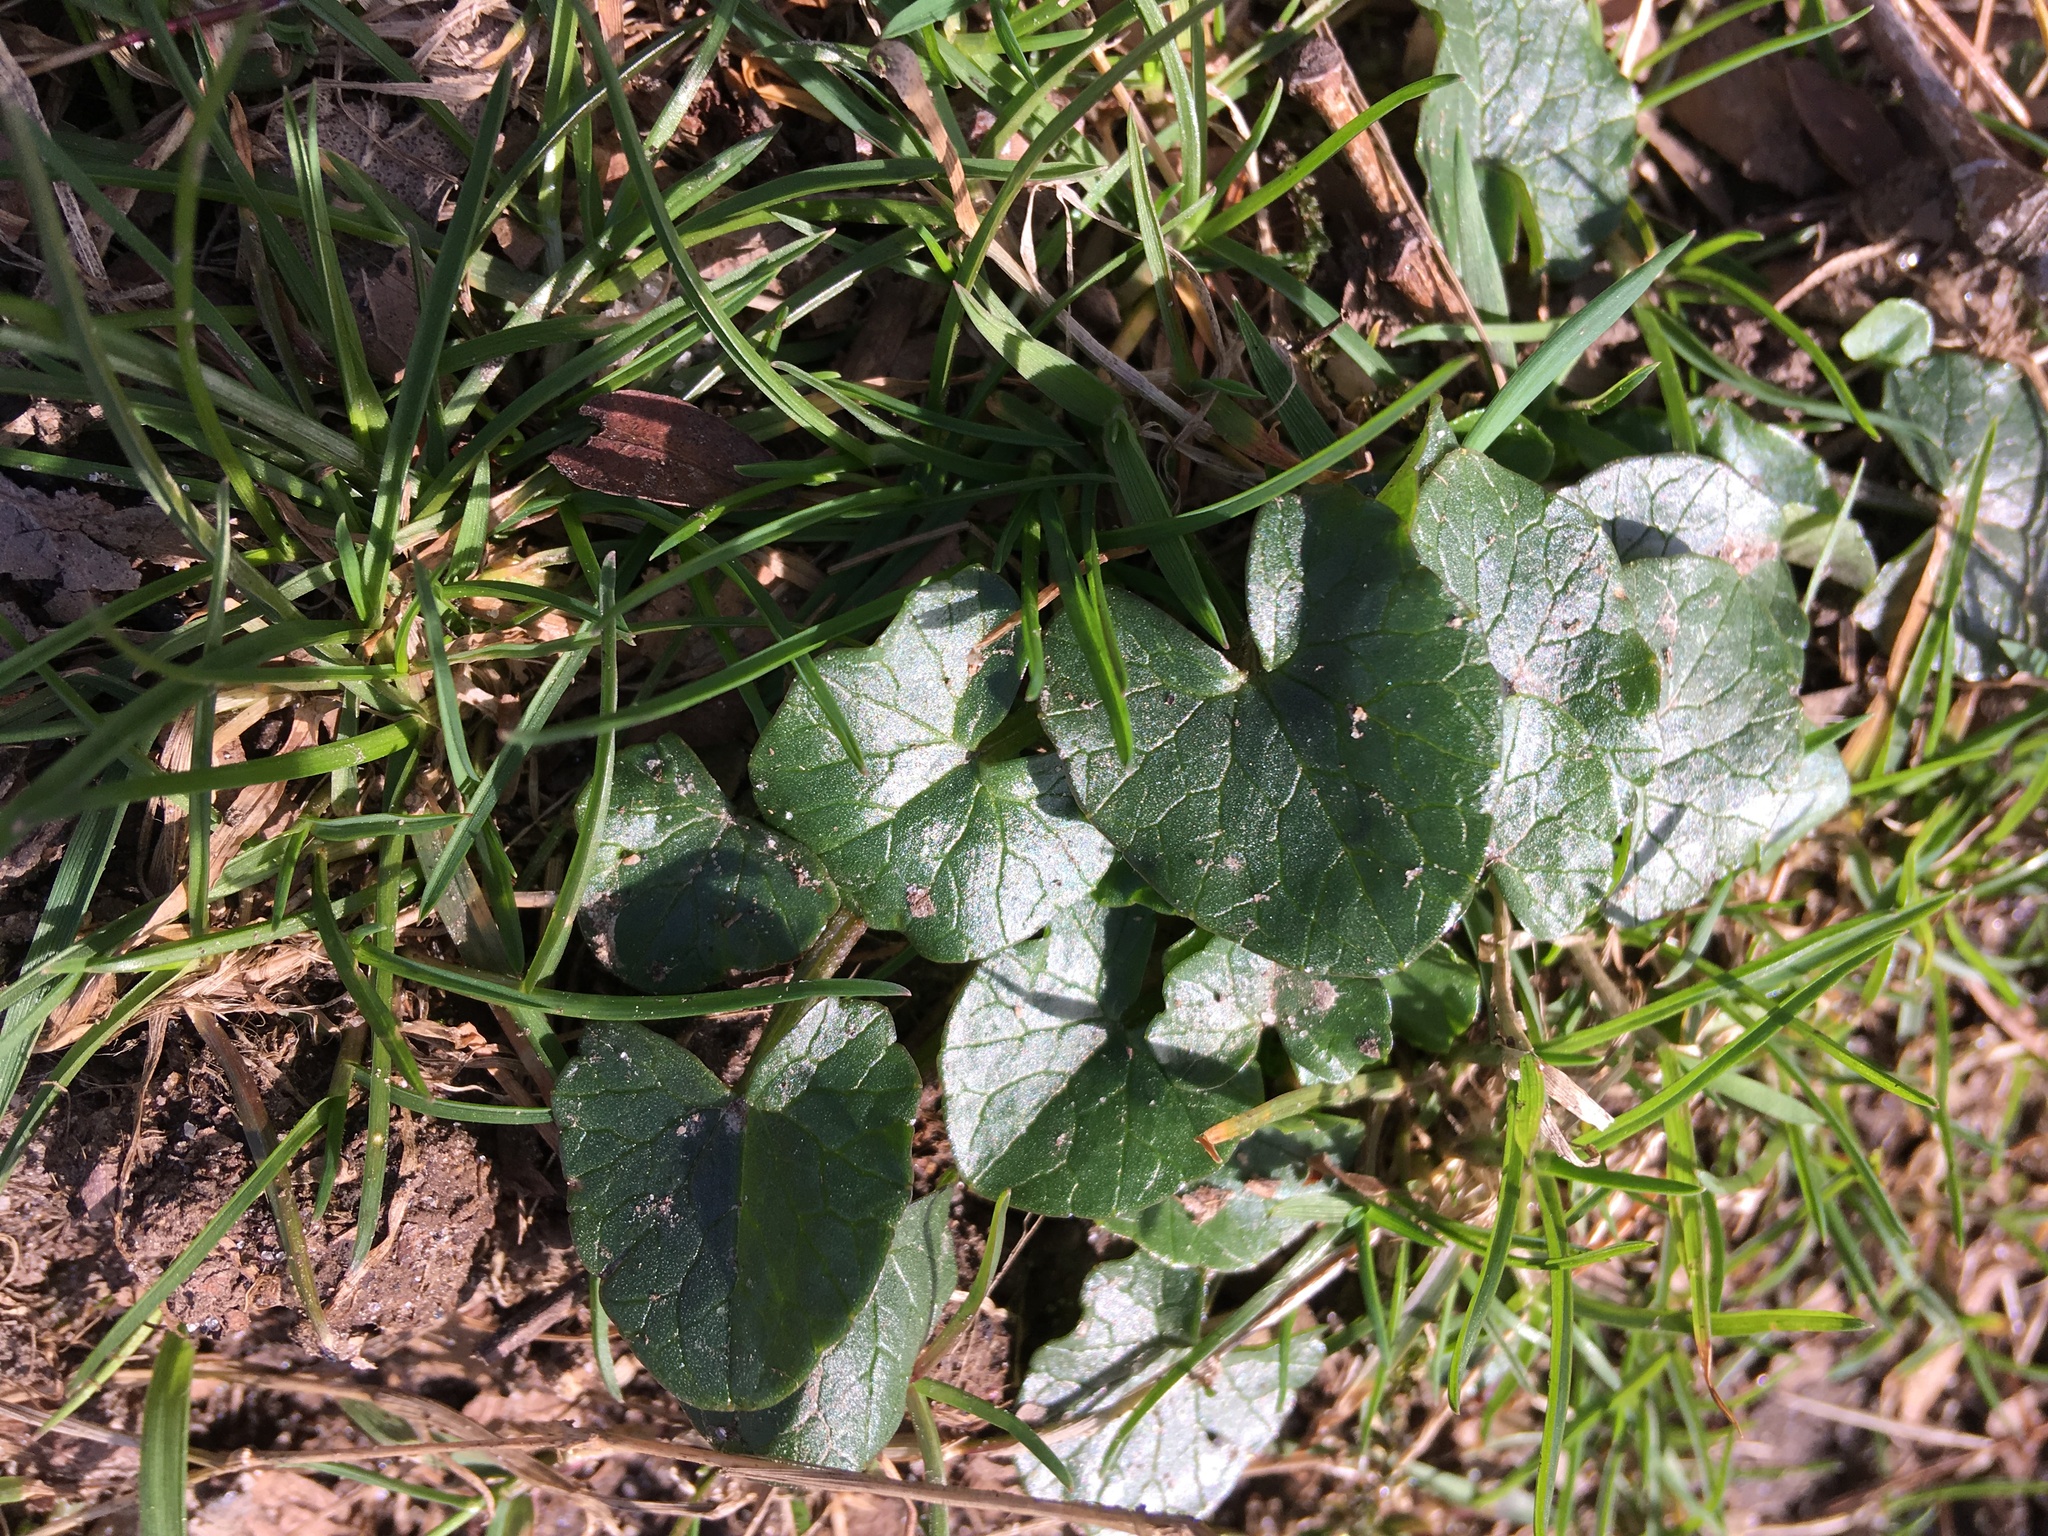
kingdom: Plantae
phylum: Tracheophyta
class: Magnoliopsida
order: Ranunculales
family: Ranunculaceae
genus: Ficaria
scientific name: Ficaria verna
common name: Lesser celandine
